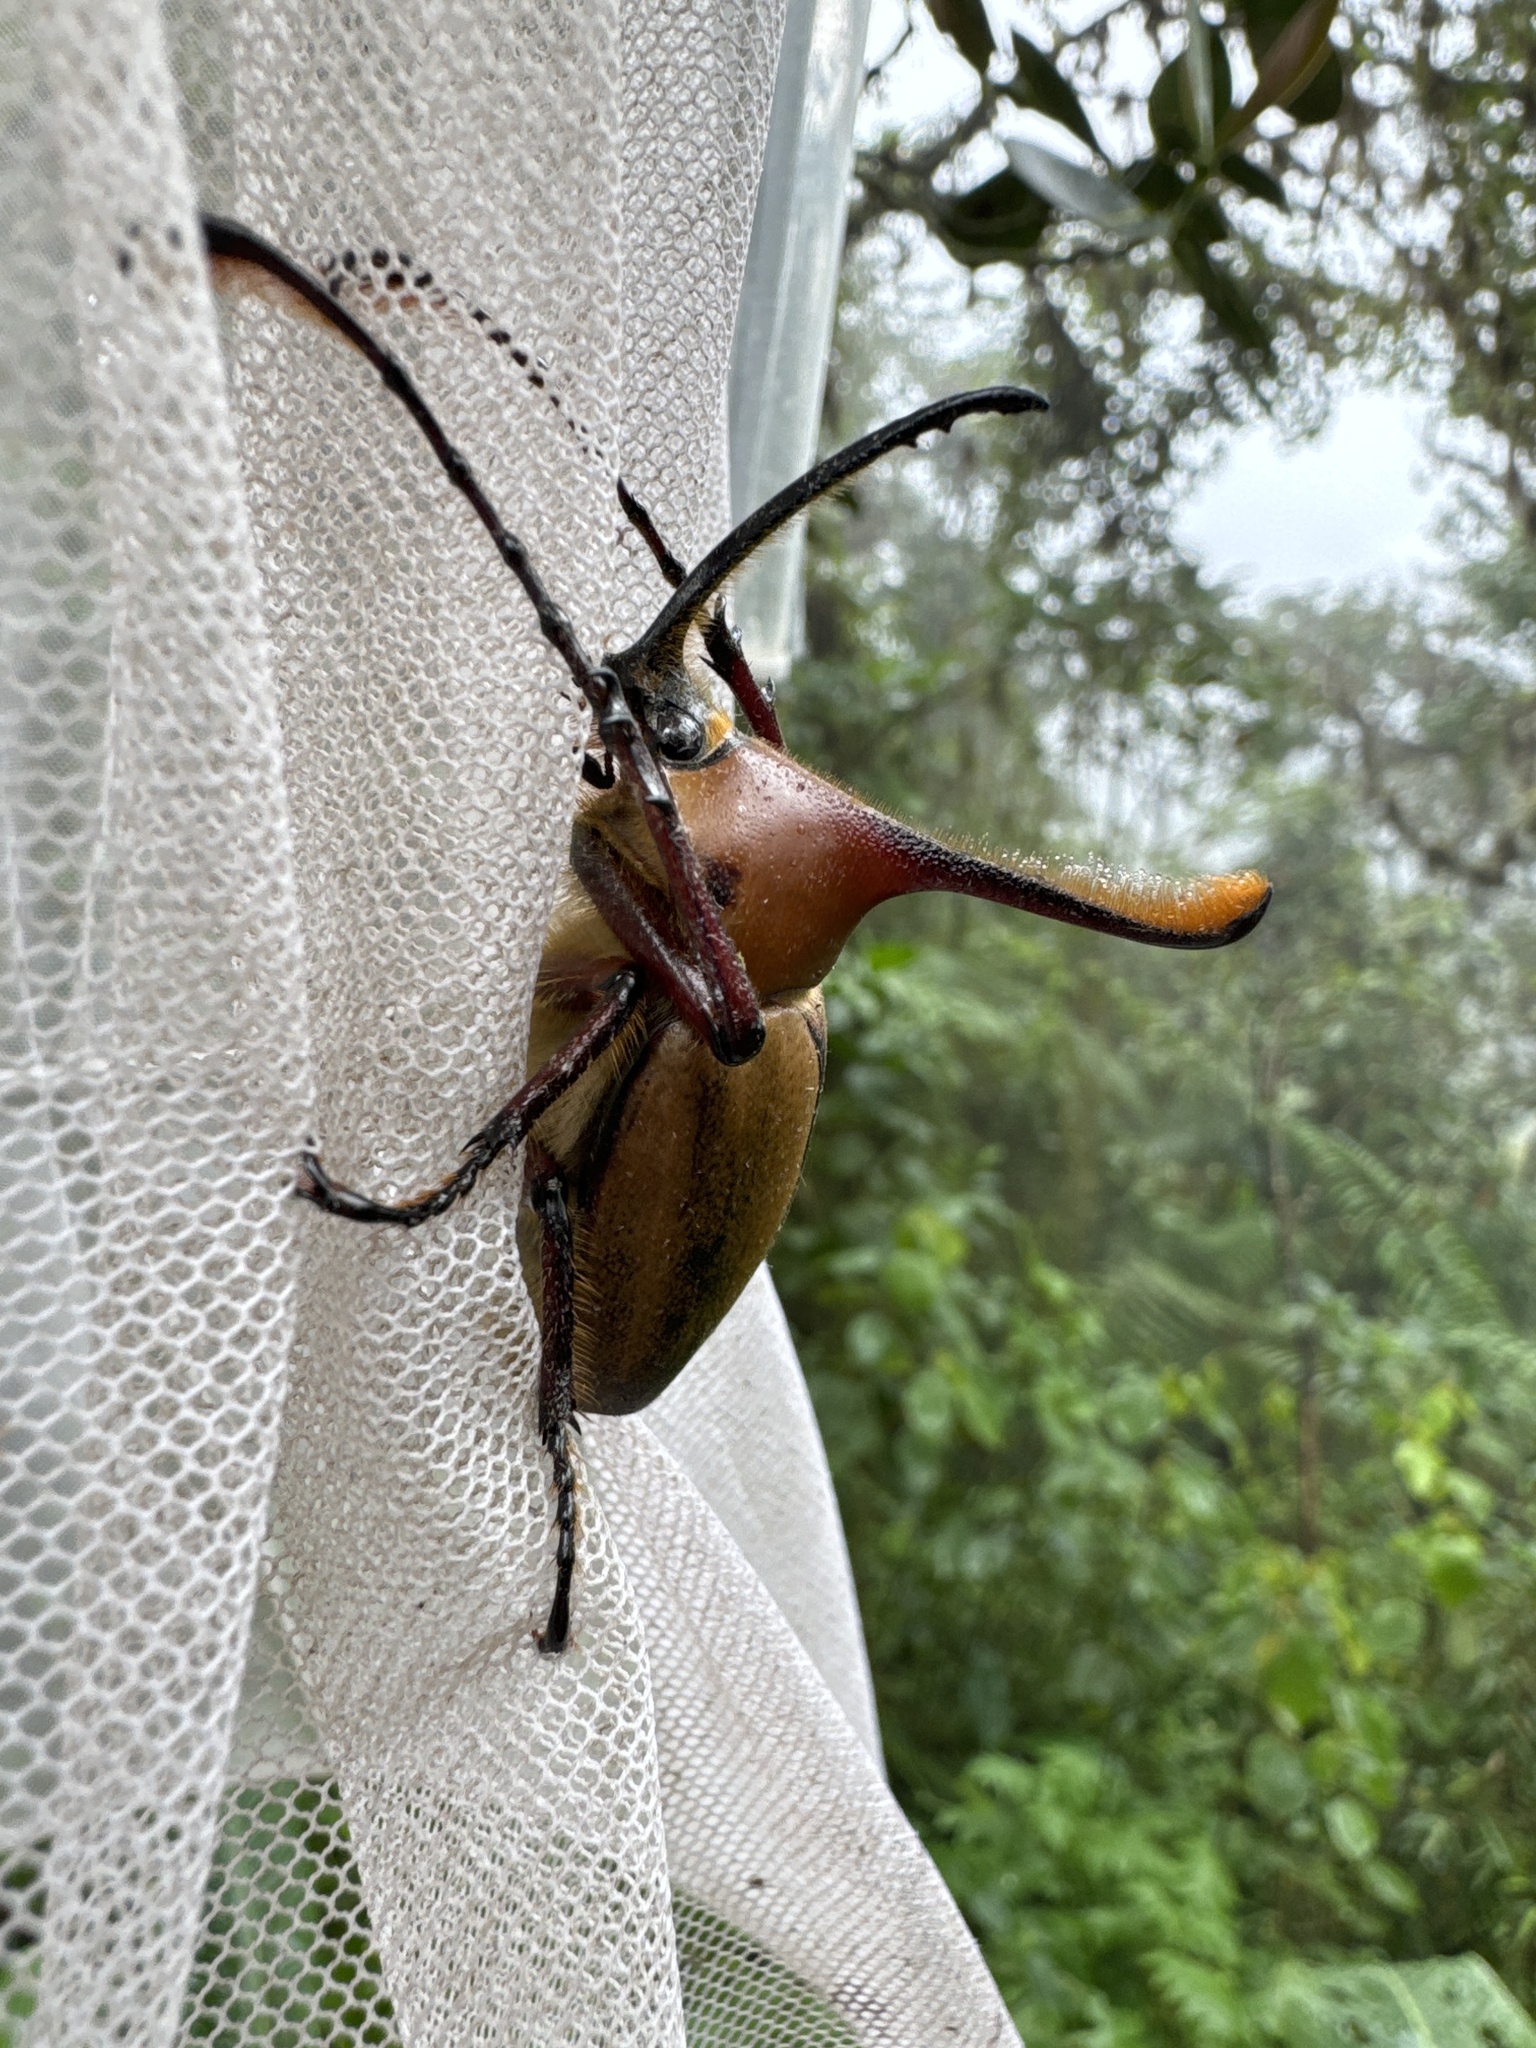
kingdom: Animalia
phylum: Arthropoda
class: Insecta
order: Coleoptera
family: Scarabaeidae
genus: Golofa
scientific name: Golofa eacus
